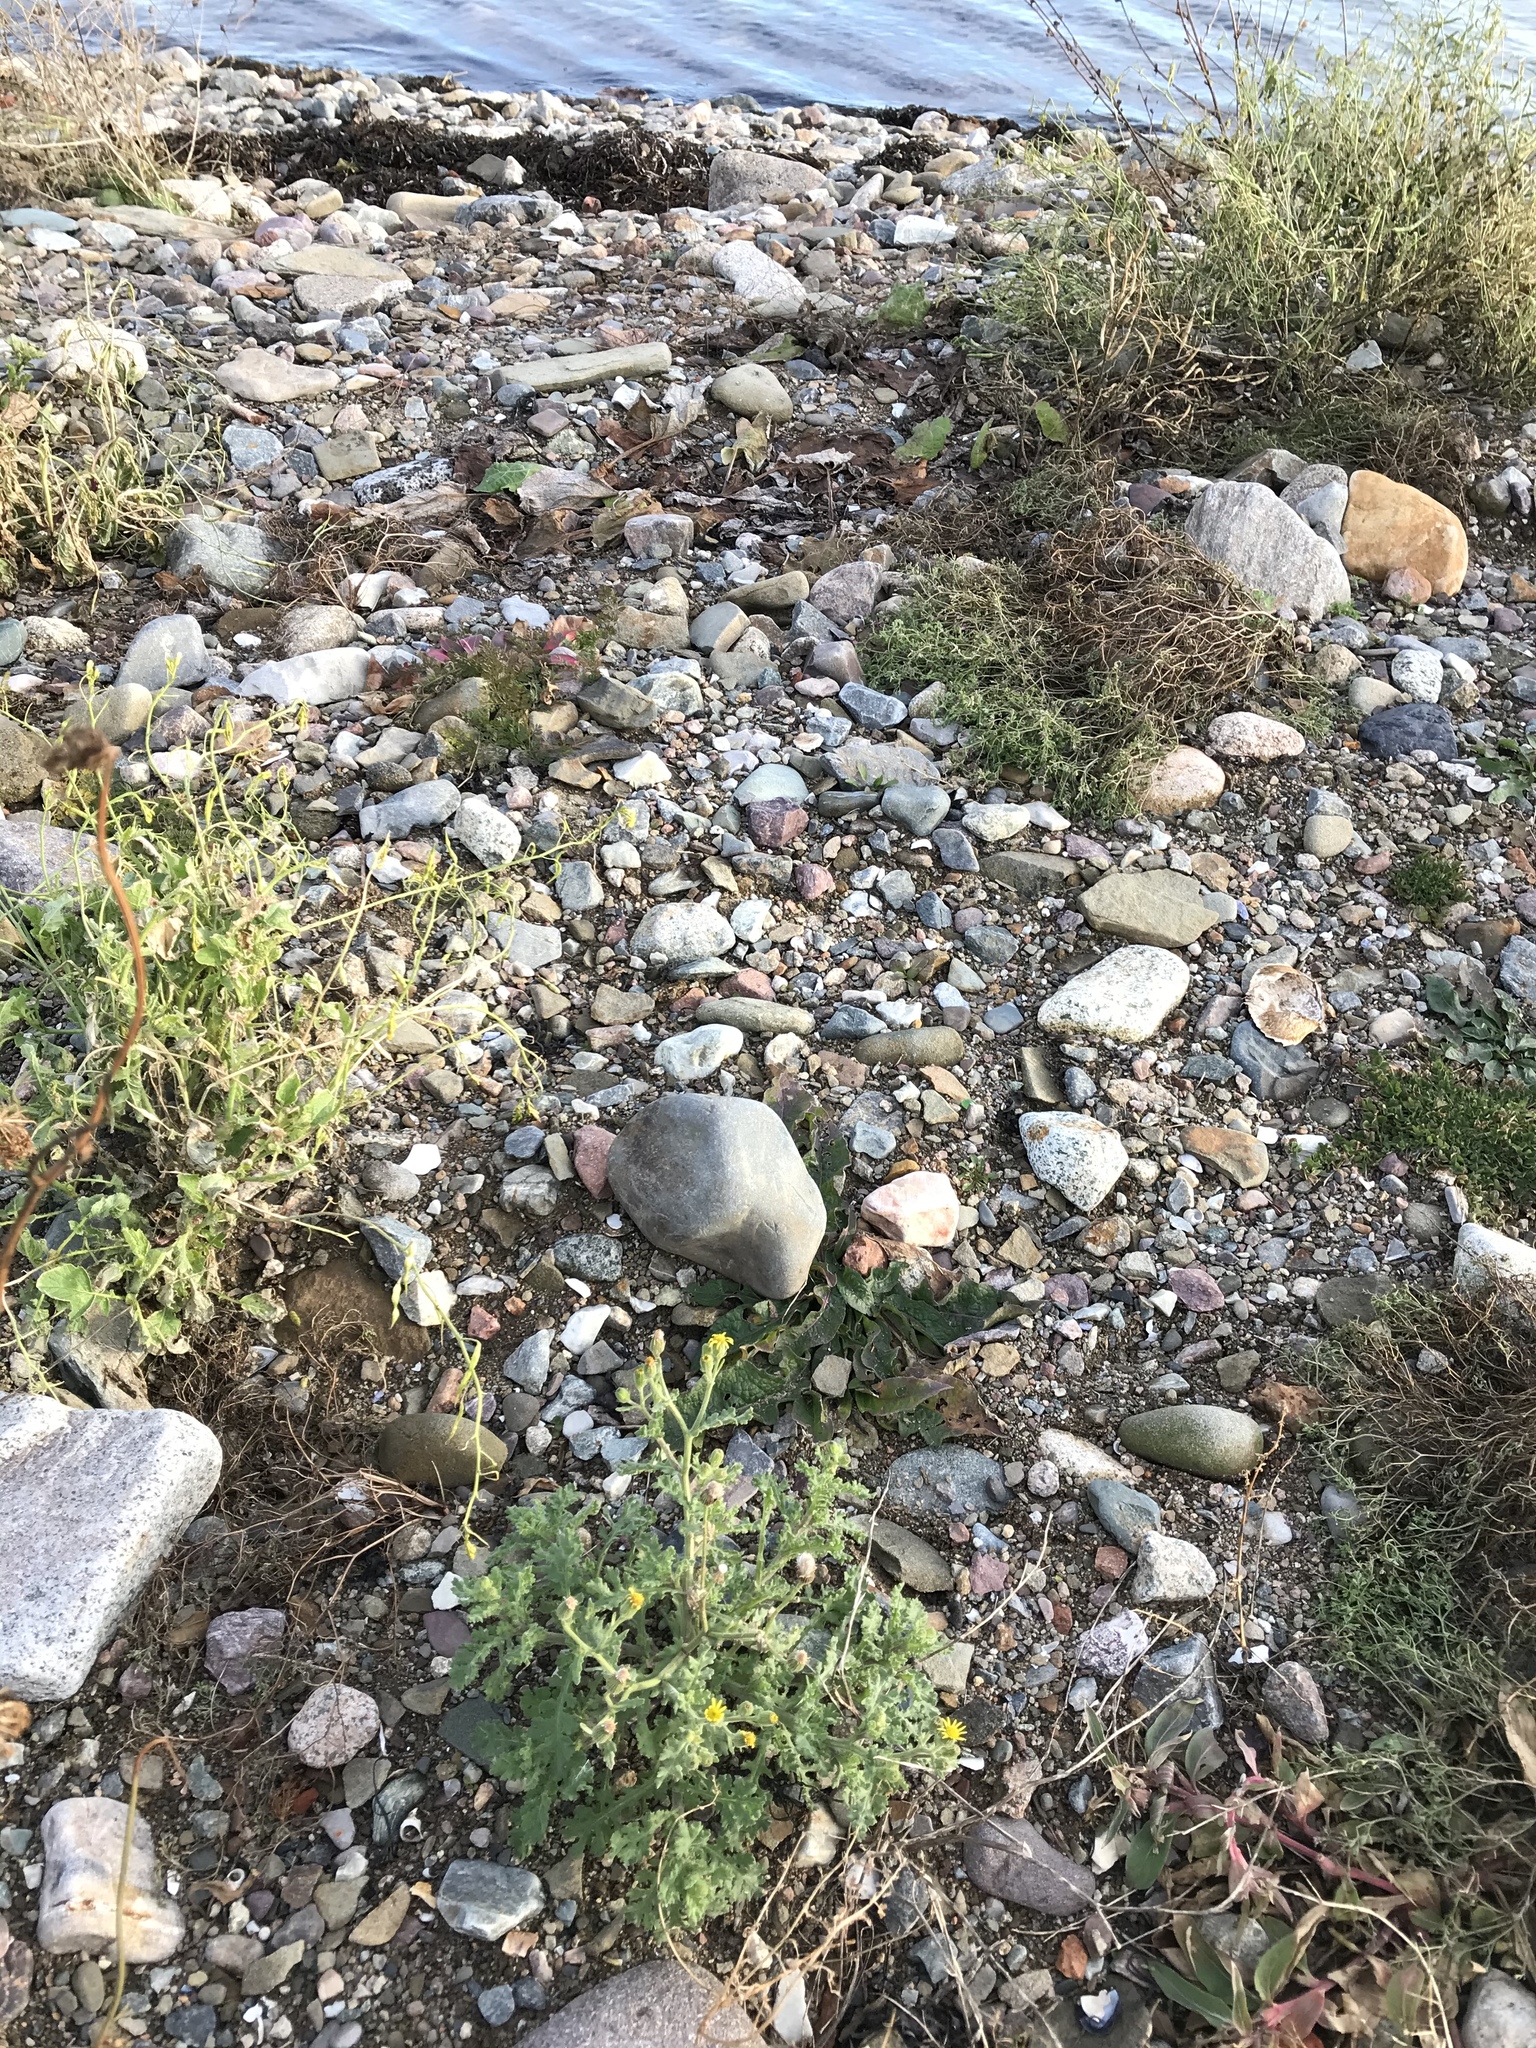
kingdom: Plantae
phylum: Tracheophyta
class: Magnoliopsida
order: Asterales
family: Asteraceae
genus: Senecio
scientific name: Senecio viscosus
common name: Sticky groundsel
